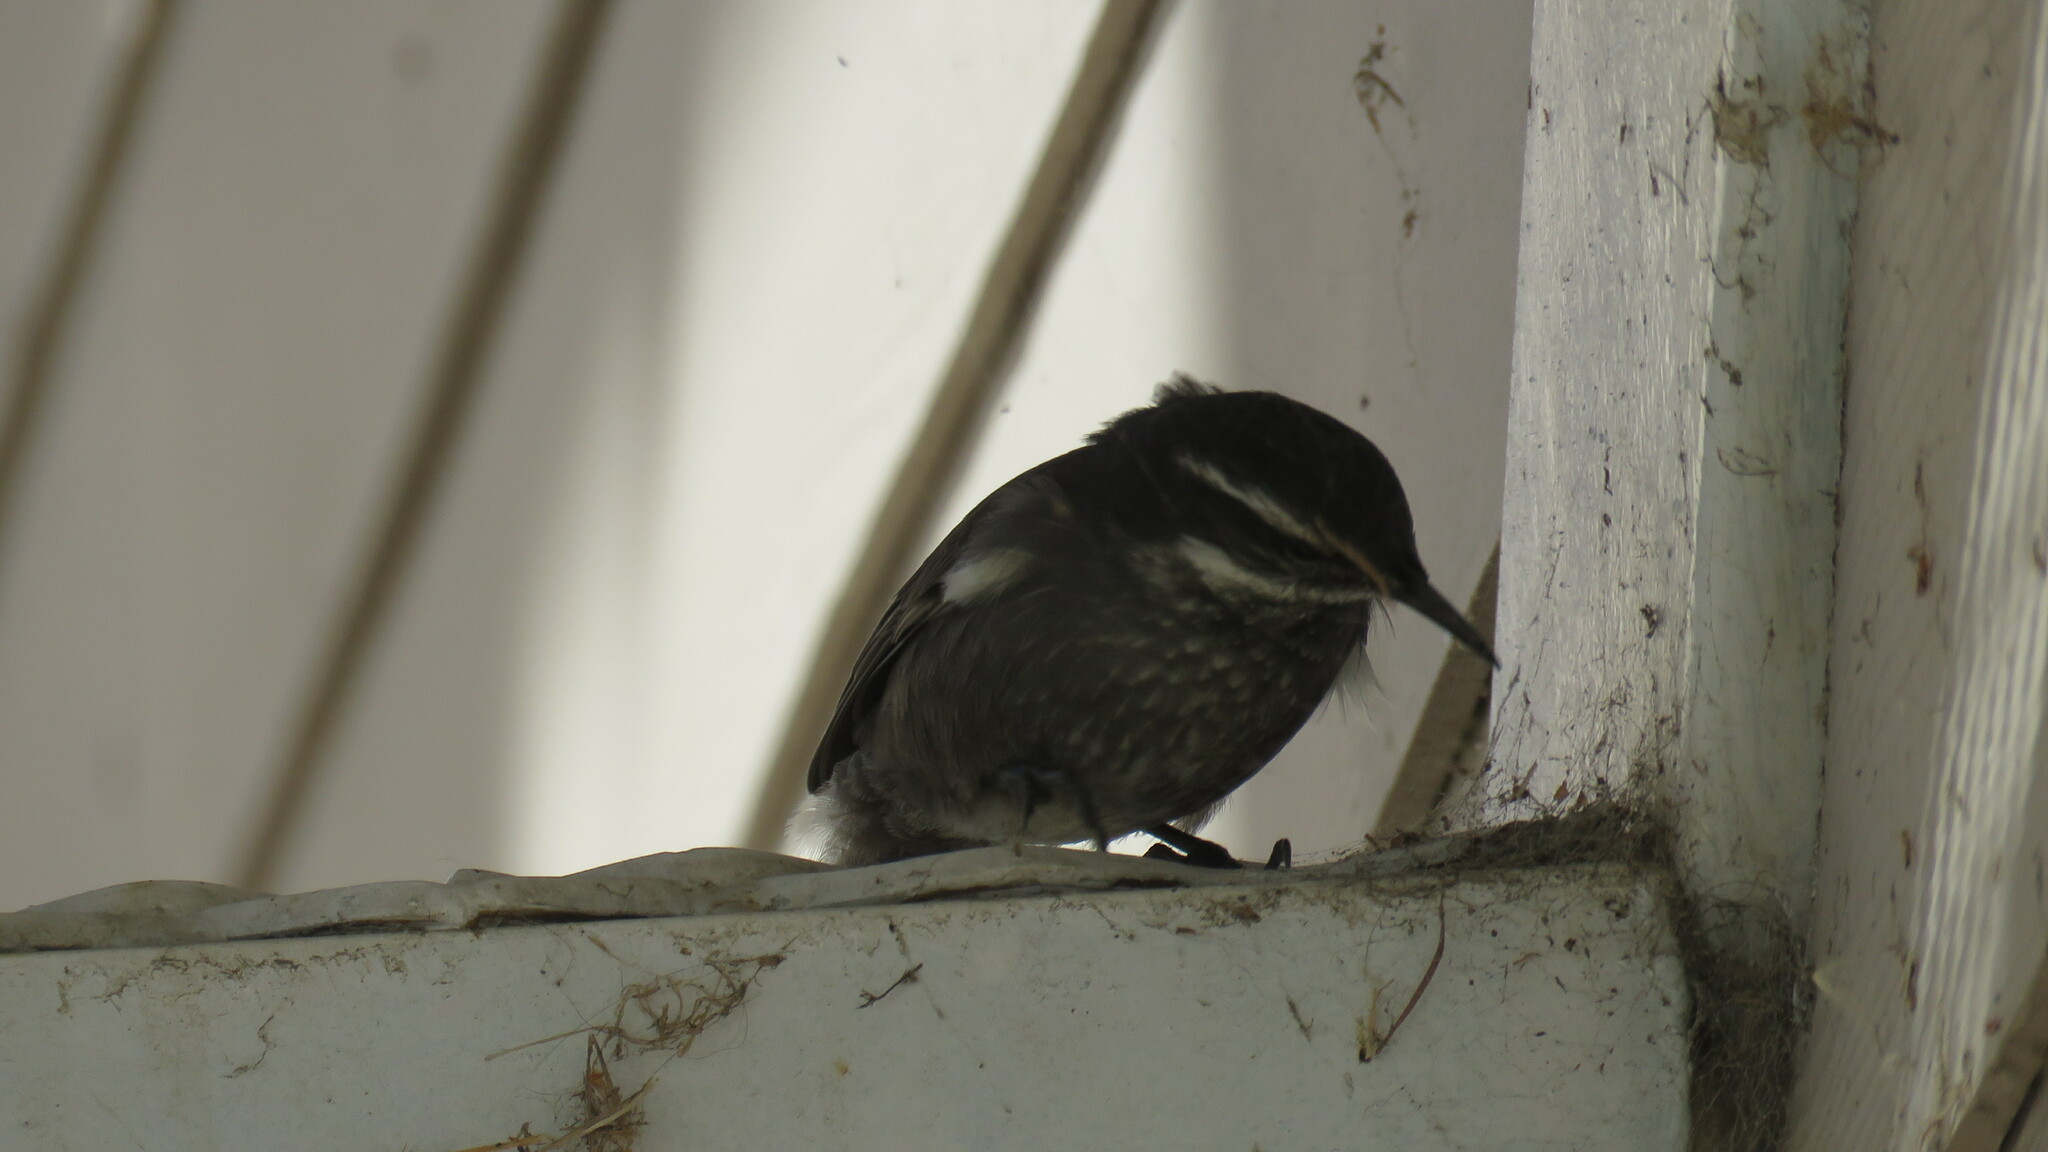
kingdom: Animalia
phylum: Chordata
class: Aves
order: Passeriformes
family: Furnariidae
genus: Cinclodes
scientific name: Cinclodes oustaleti
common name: Grey-flanked cinclodes
